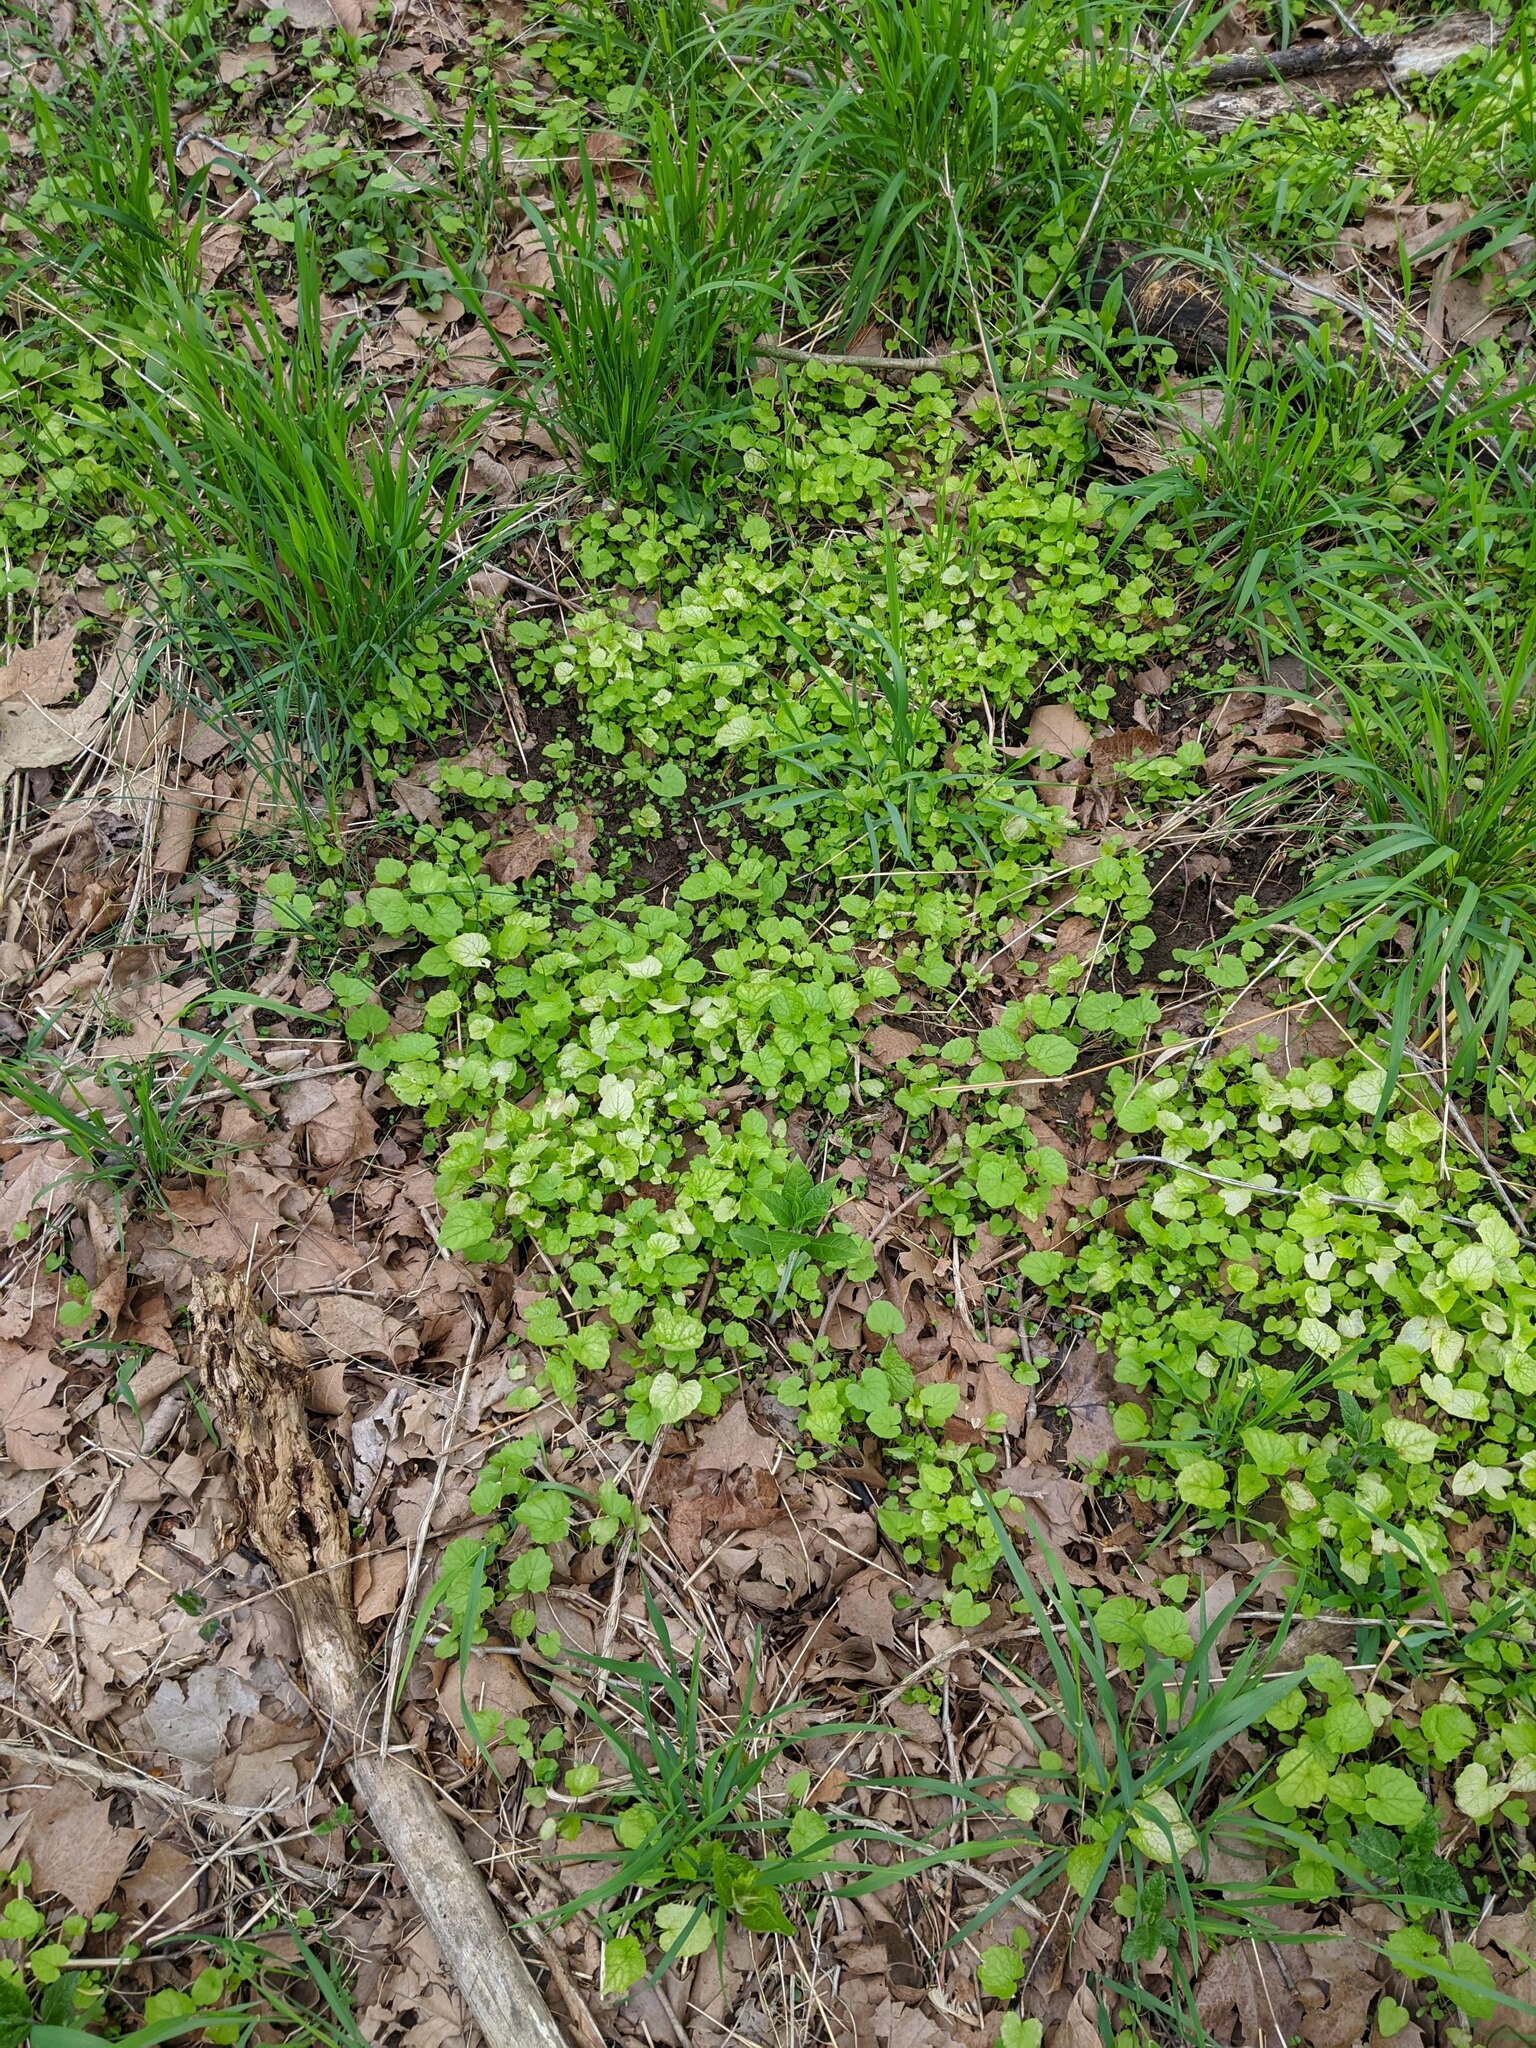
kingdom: Plantae
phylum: Tracheophyta
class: Magnoliopsida
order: Brassicales
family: Brassicaceae
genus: Alliaria
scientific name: Alliaria petiolata
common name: Garlic mustard
